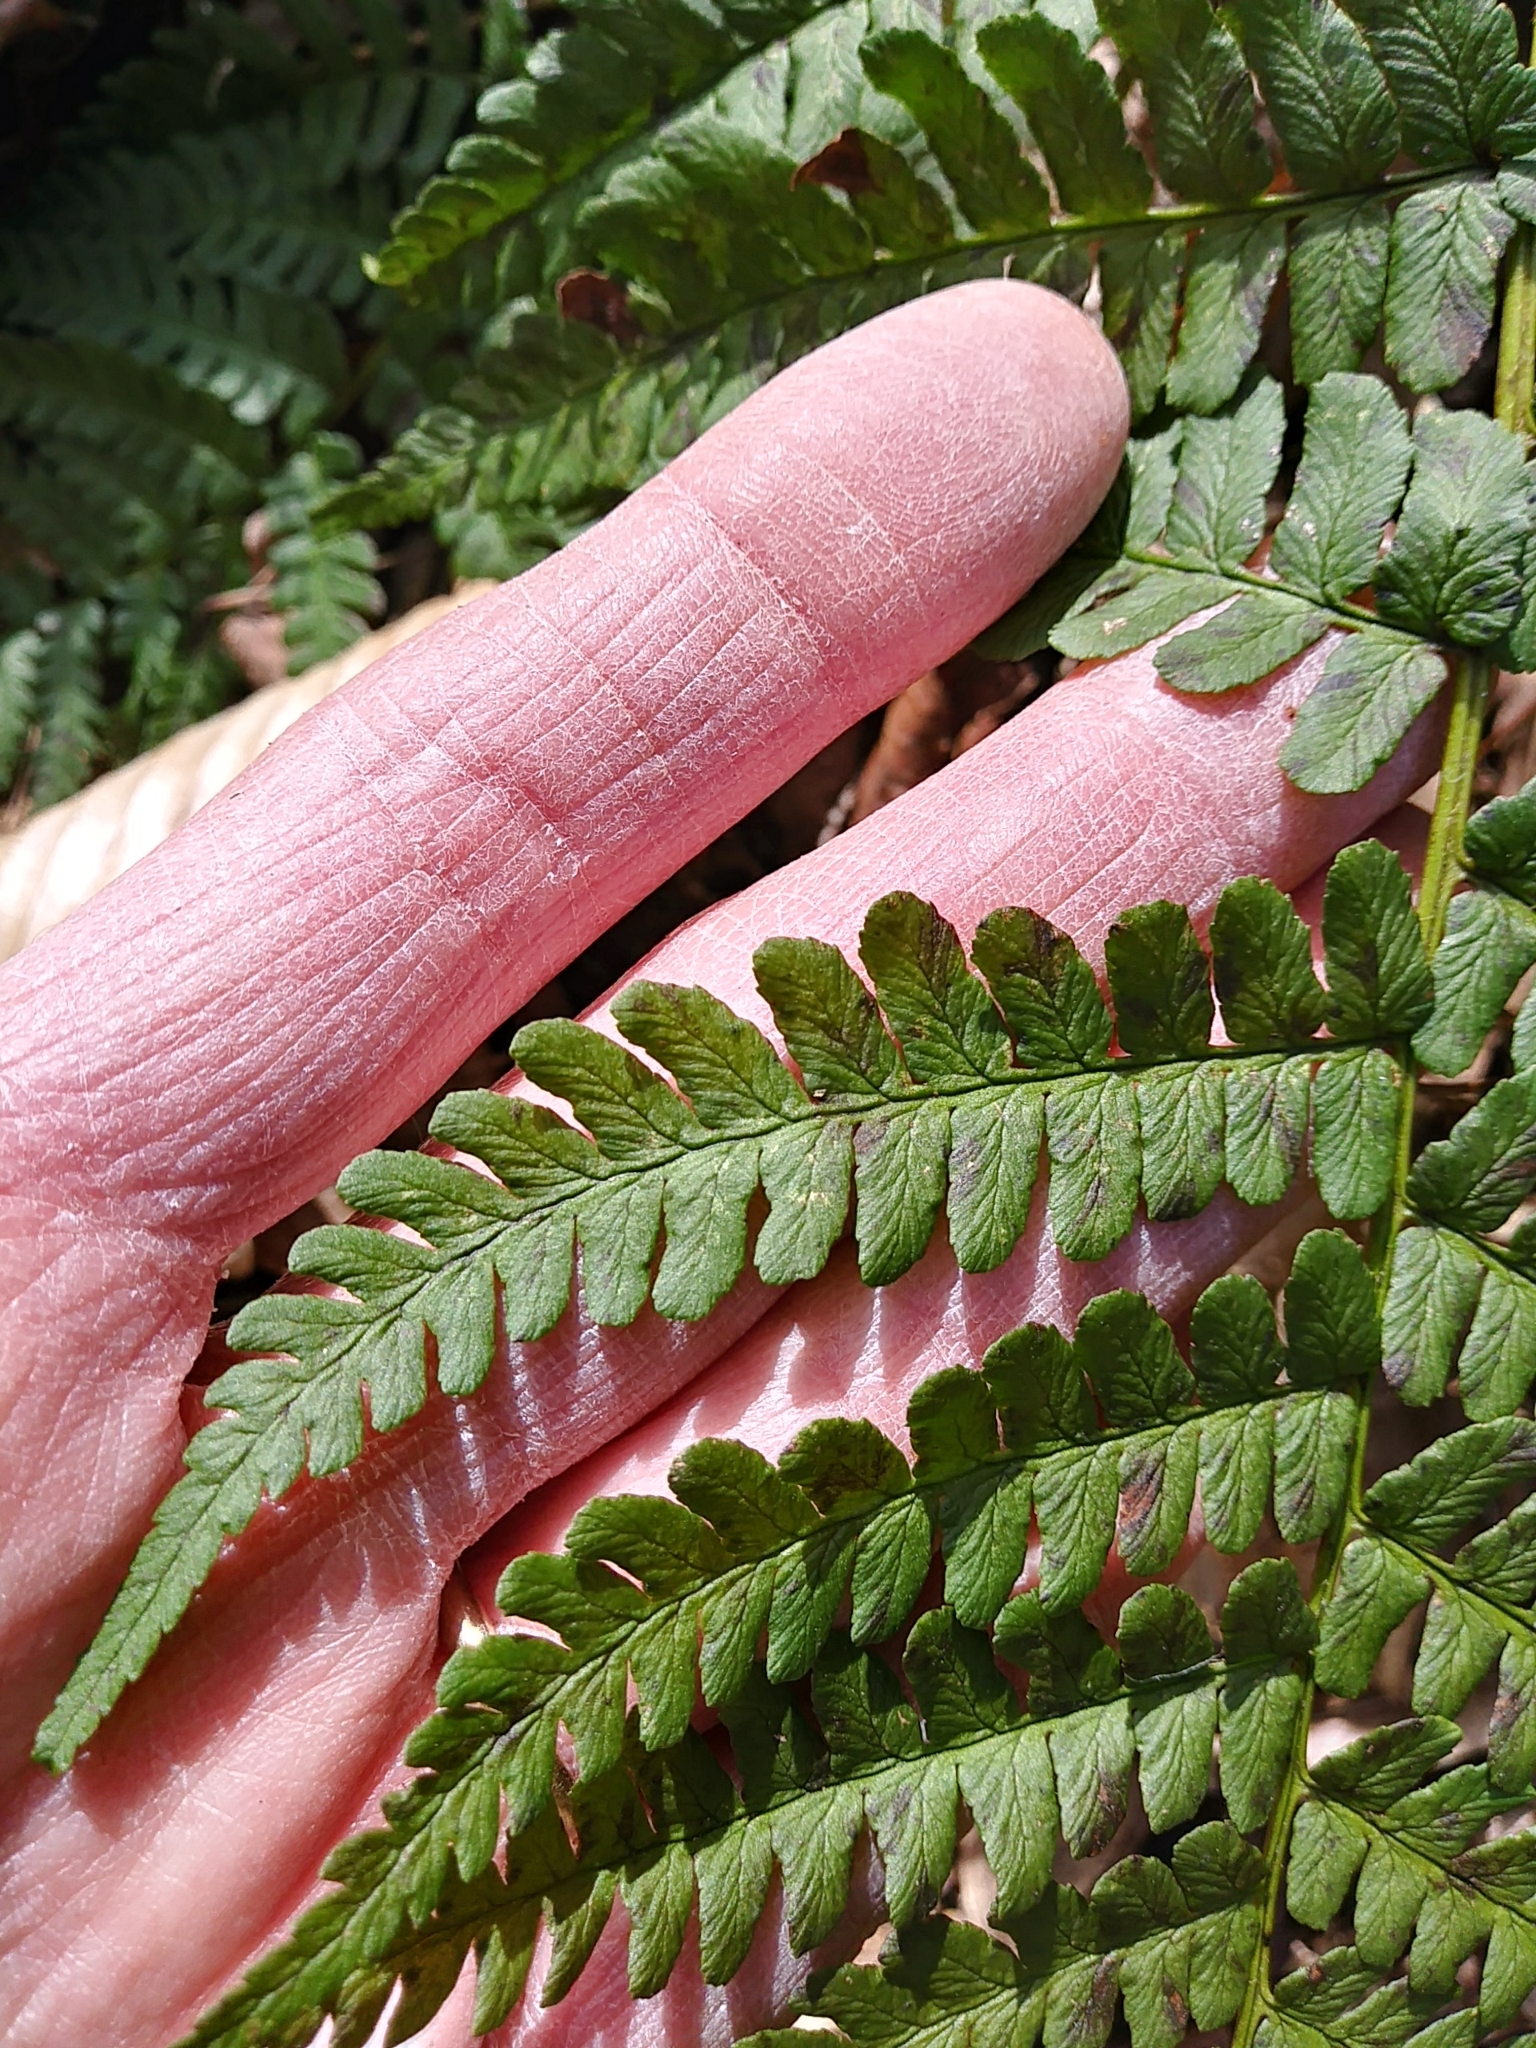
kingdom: Plantae
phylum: Tracheophyta
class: Polypodiopsida
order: Polypodiales
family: Dryopteridaceae
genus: Dryopteris
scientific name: Dryopteris marginalis
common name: Marginal wood fern
